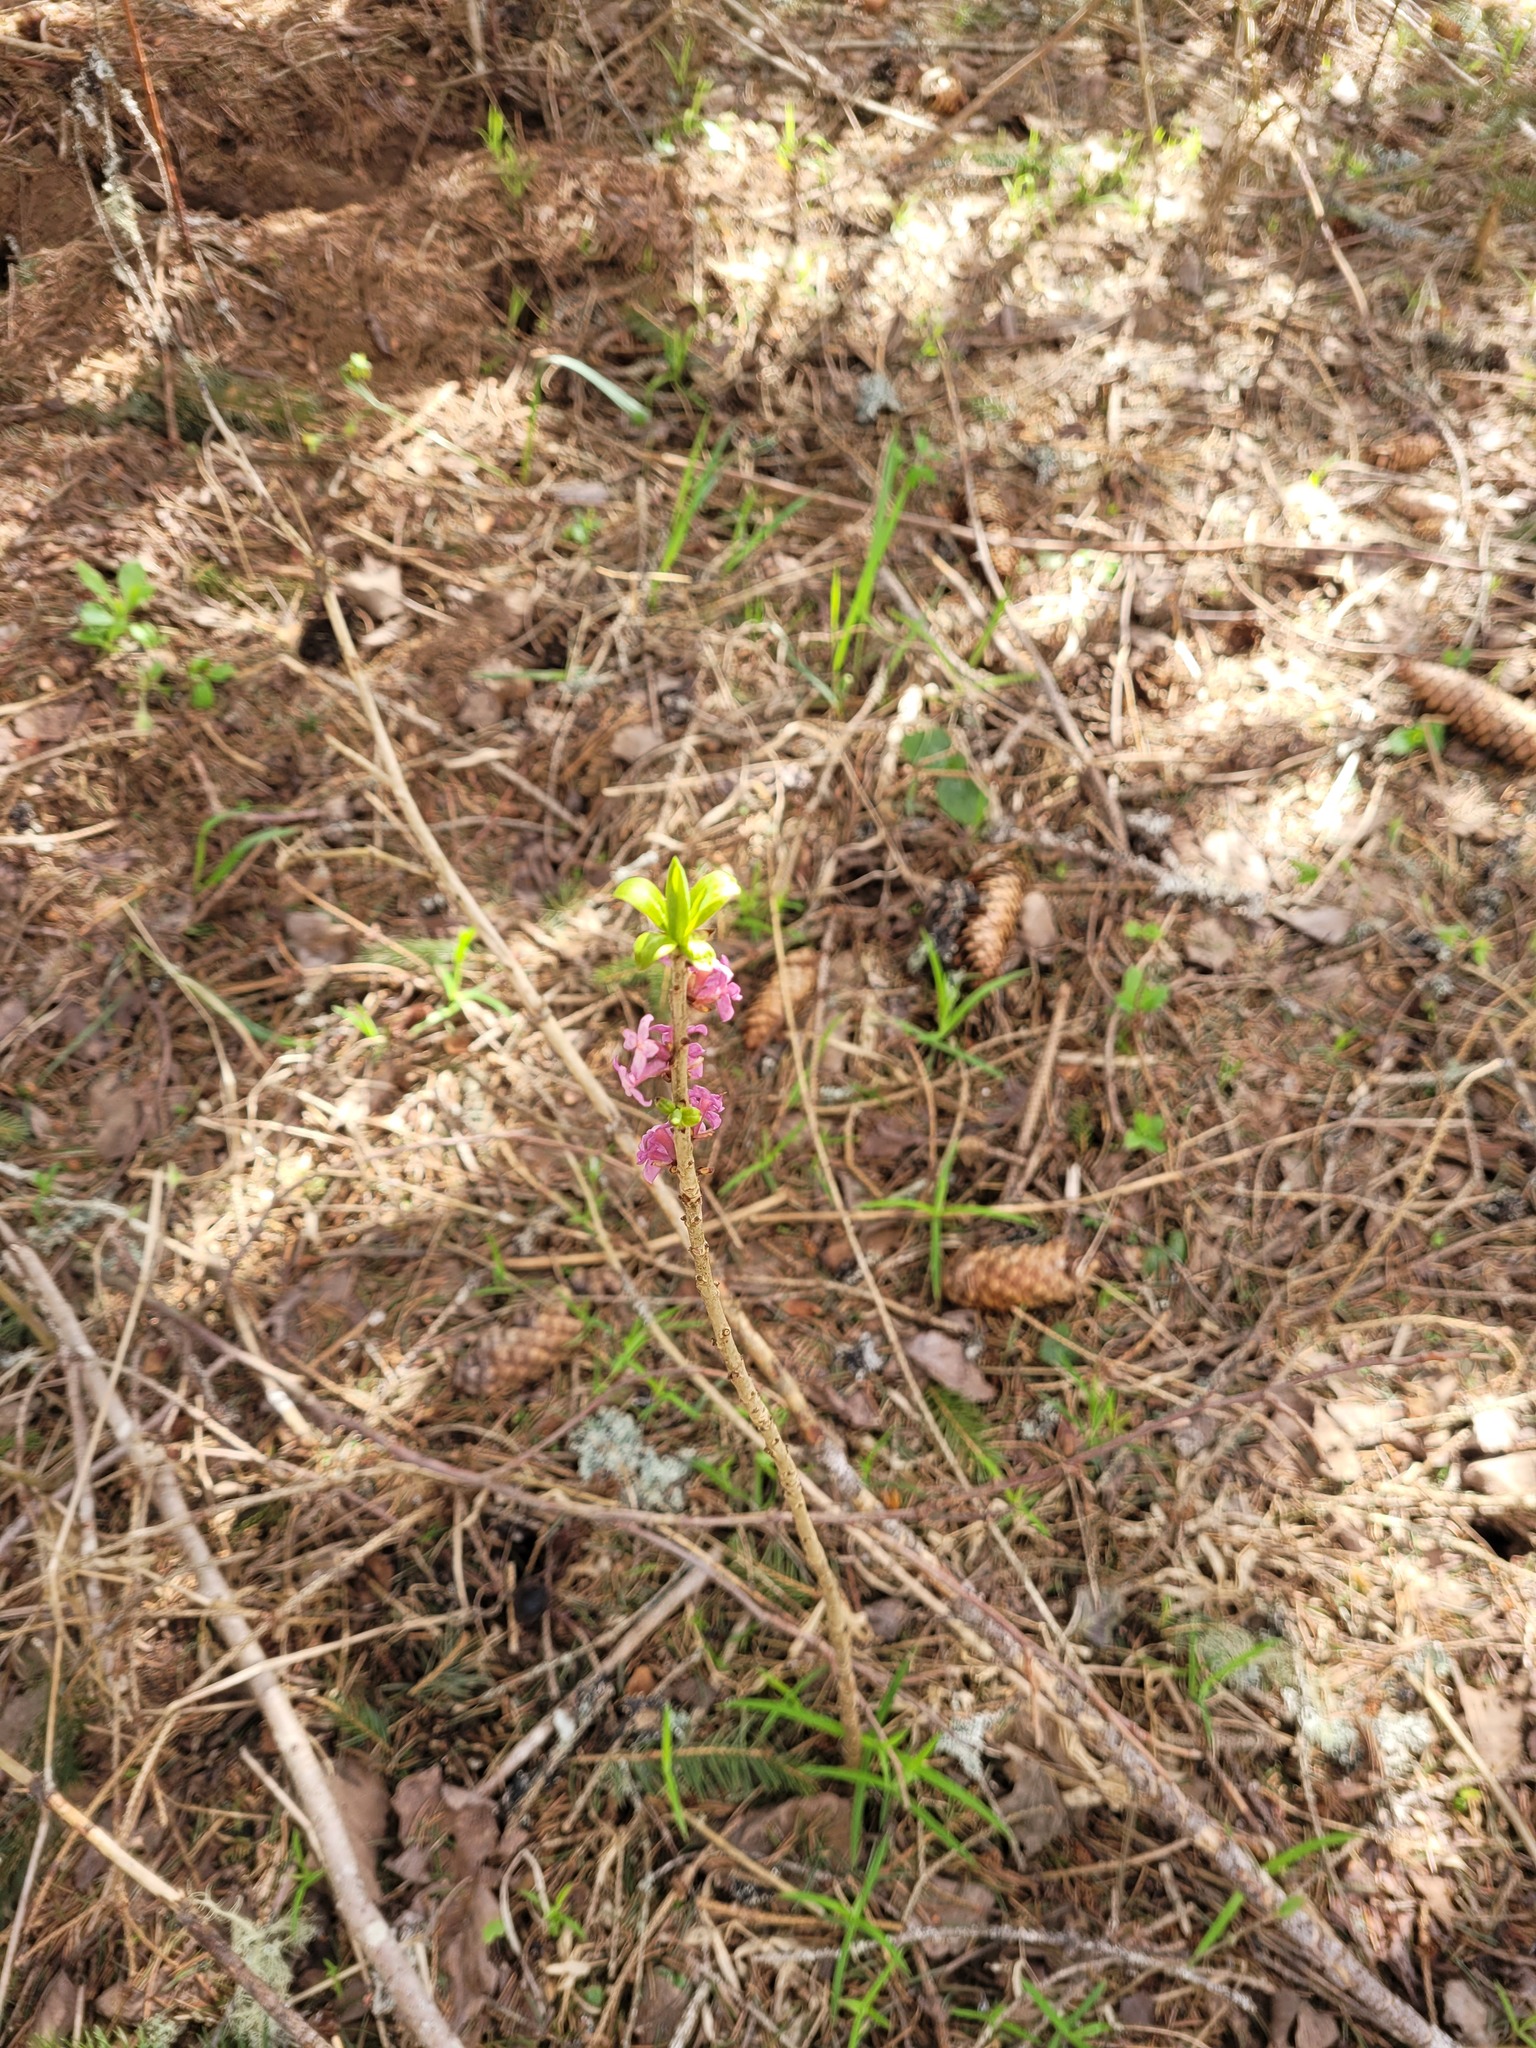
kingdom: Plantae
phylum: Tracheophyta
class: Magnoliopsida
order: Malvales
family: Thymelaeaceae
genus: Daphne
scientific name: Daphne mezereum
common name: Mezereon
